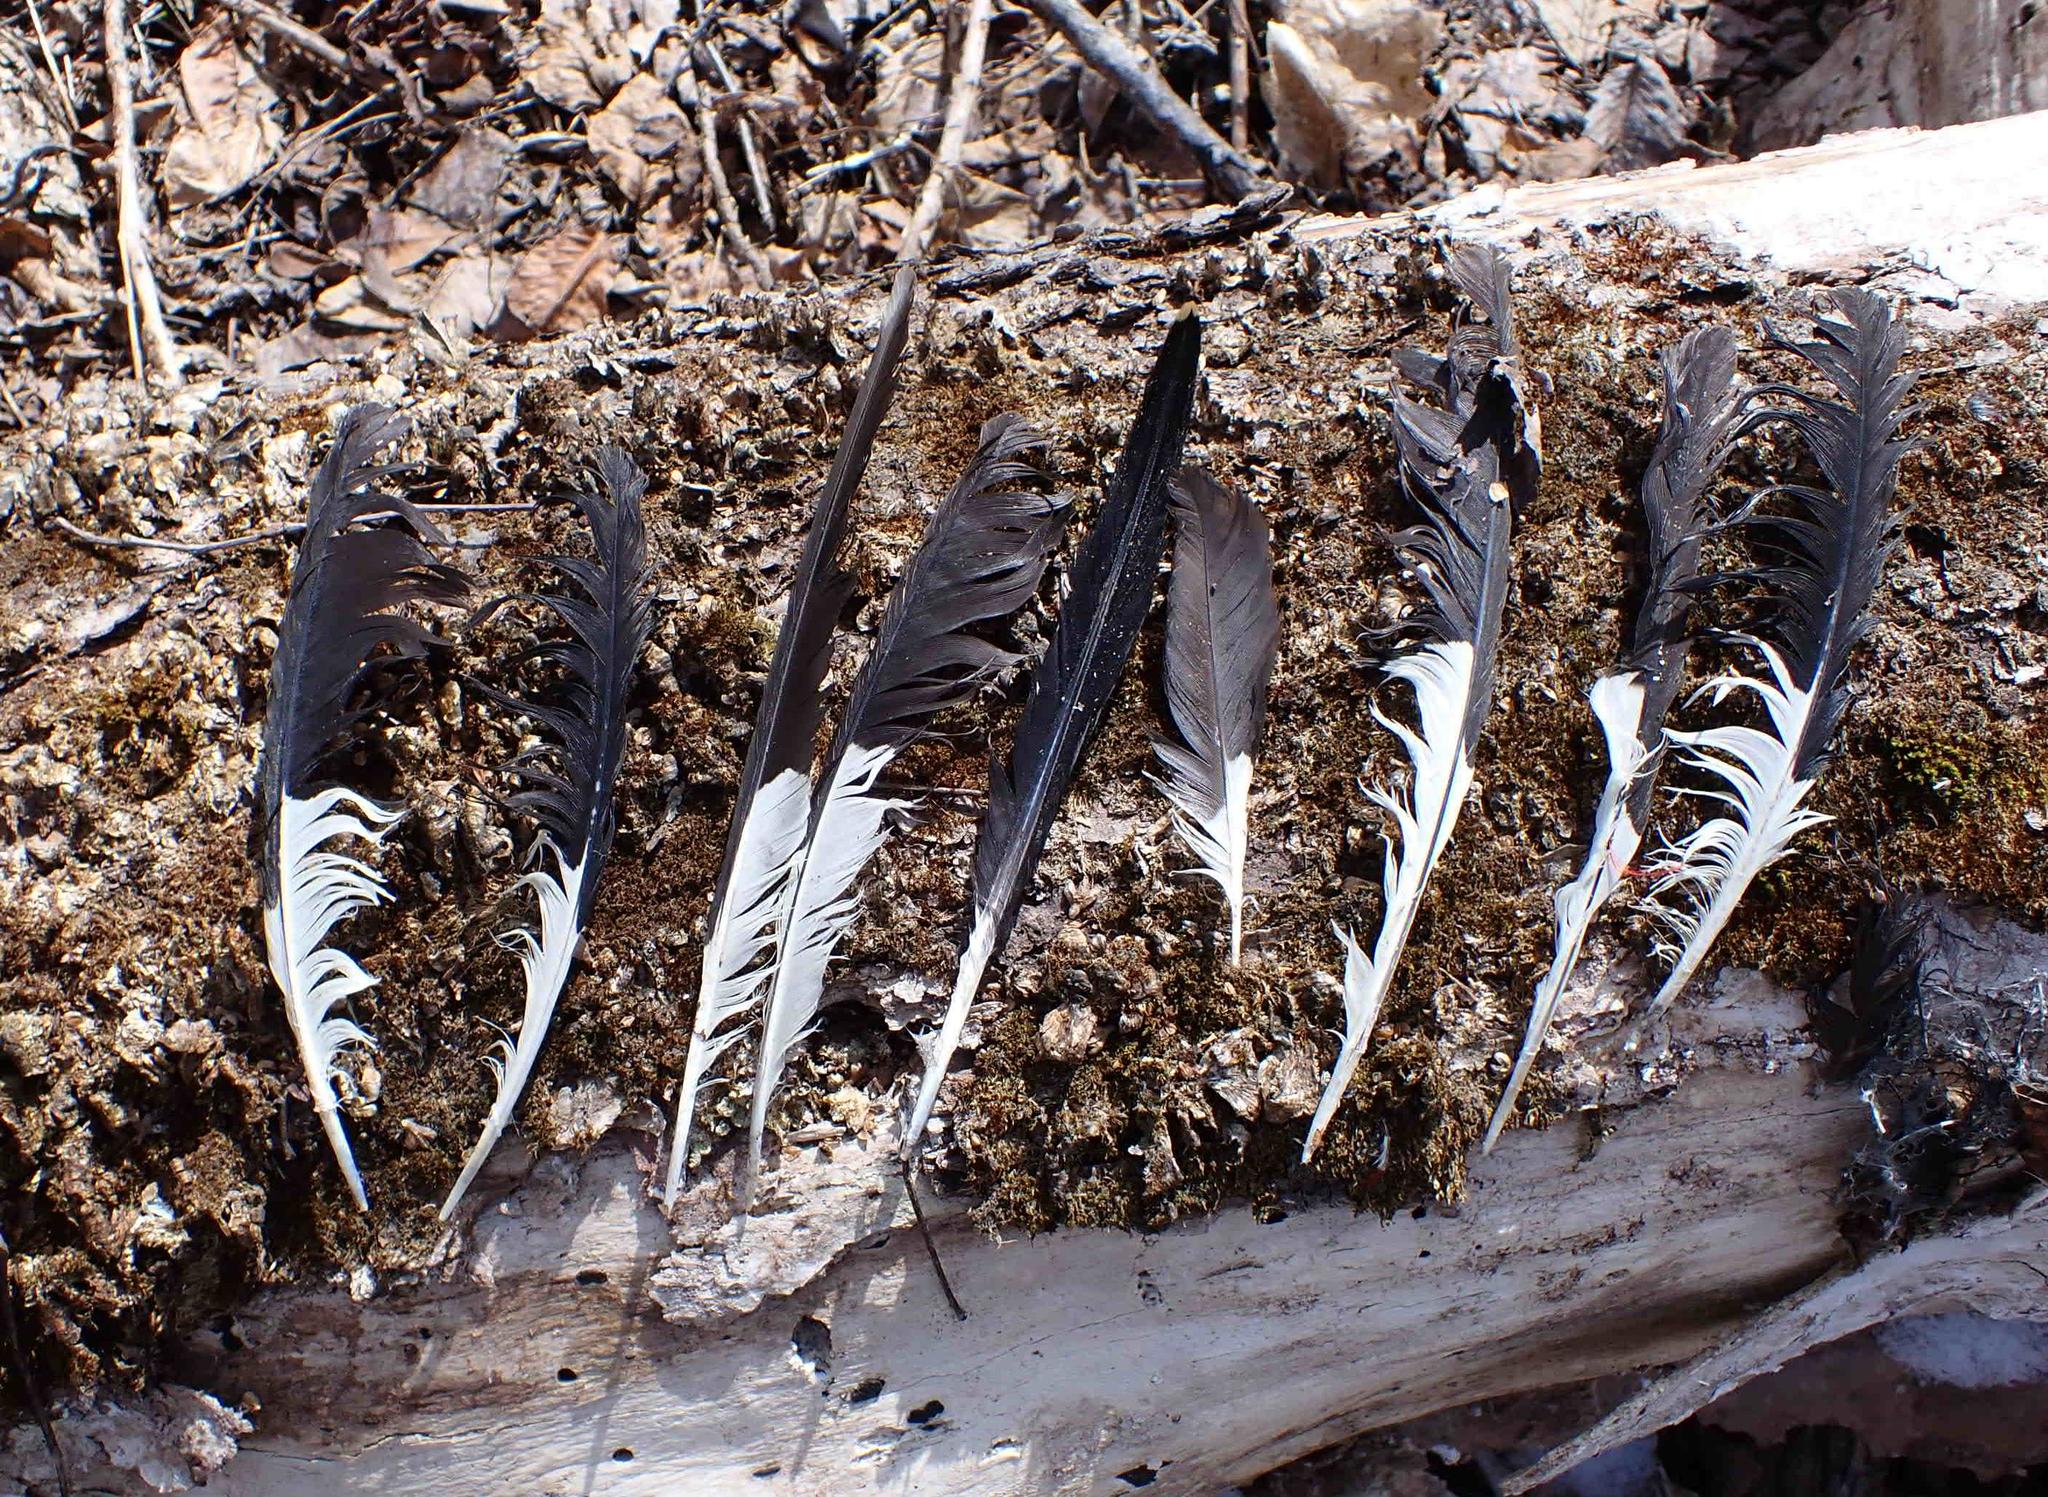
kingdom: Animalia
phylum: Chordata
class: Aves
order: Piciformes
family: Picidae
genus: Dryocopus
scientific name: Dryocopus pileatus
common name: Pileated woodpecker
